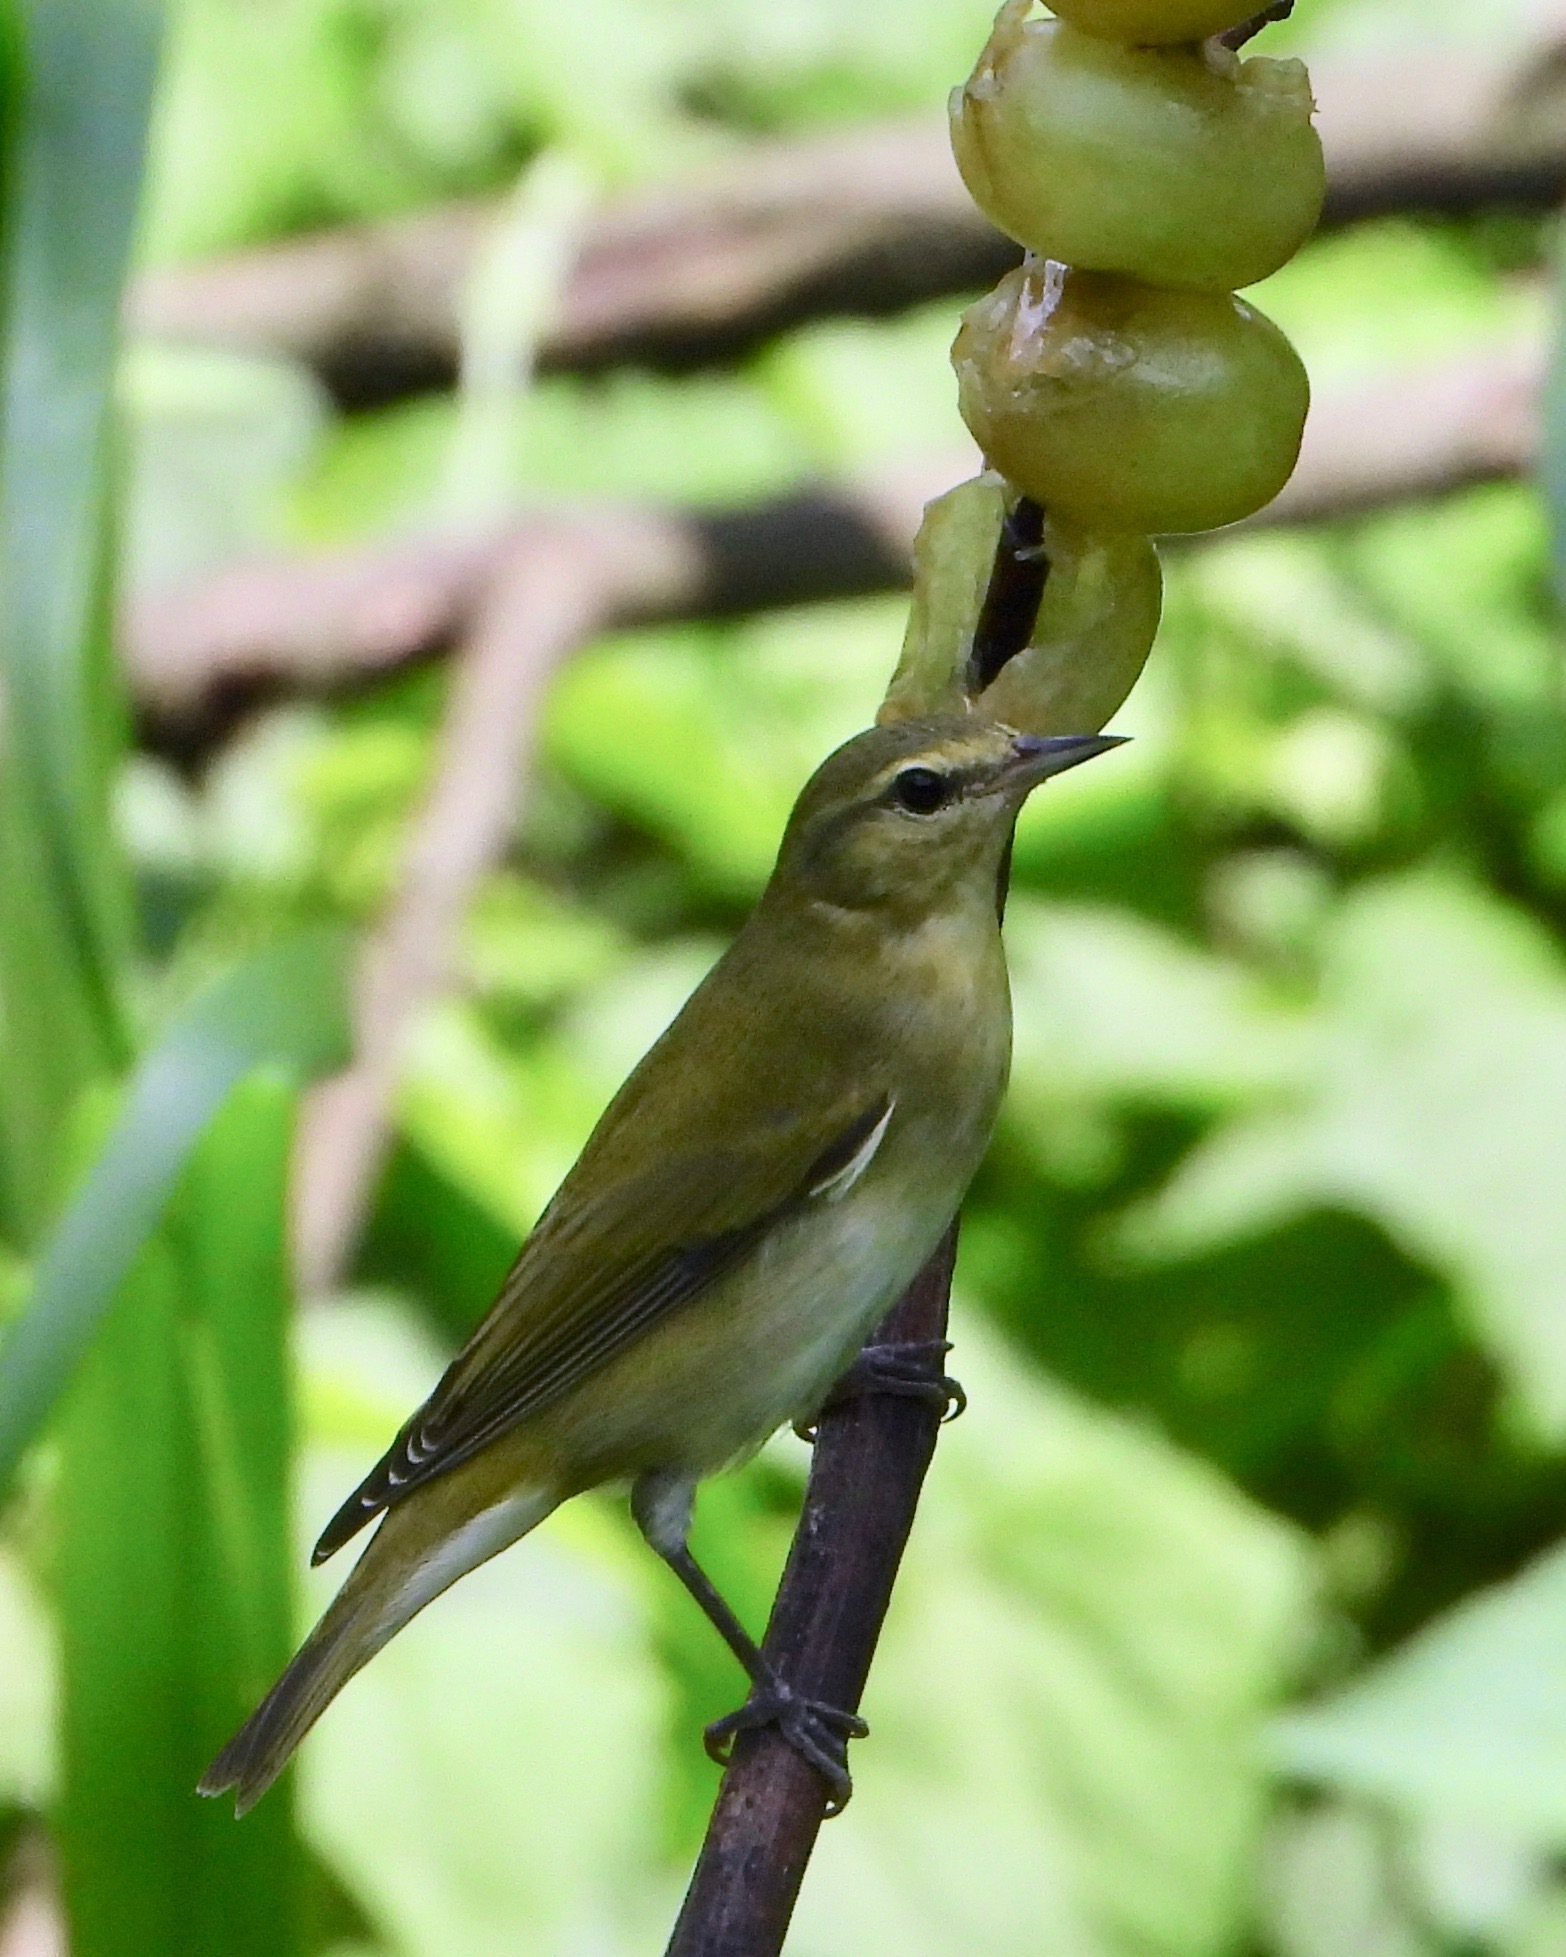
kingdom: Animalia
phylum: Chordata
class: Aves
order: Passeriformes
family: Parulidae
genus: Leiothlypis
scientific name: Leiothlypis peregrina
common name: Tennessee warbler
